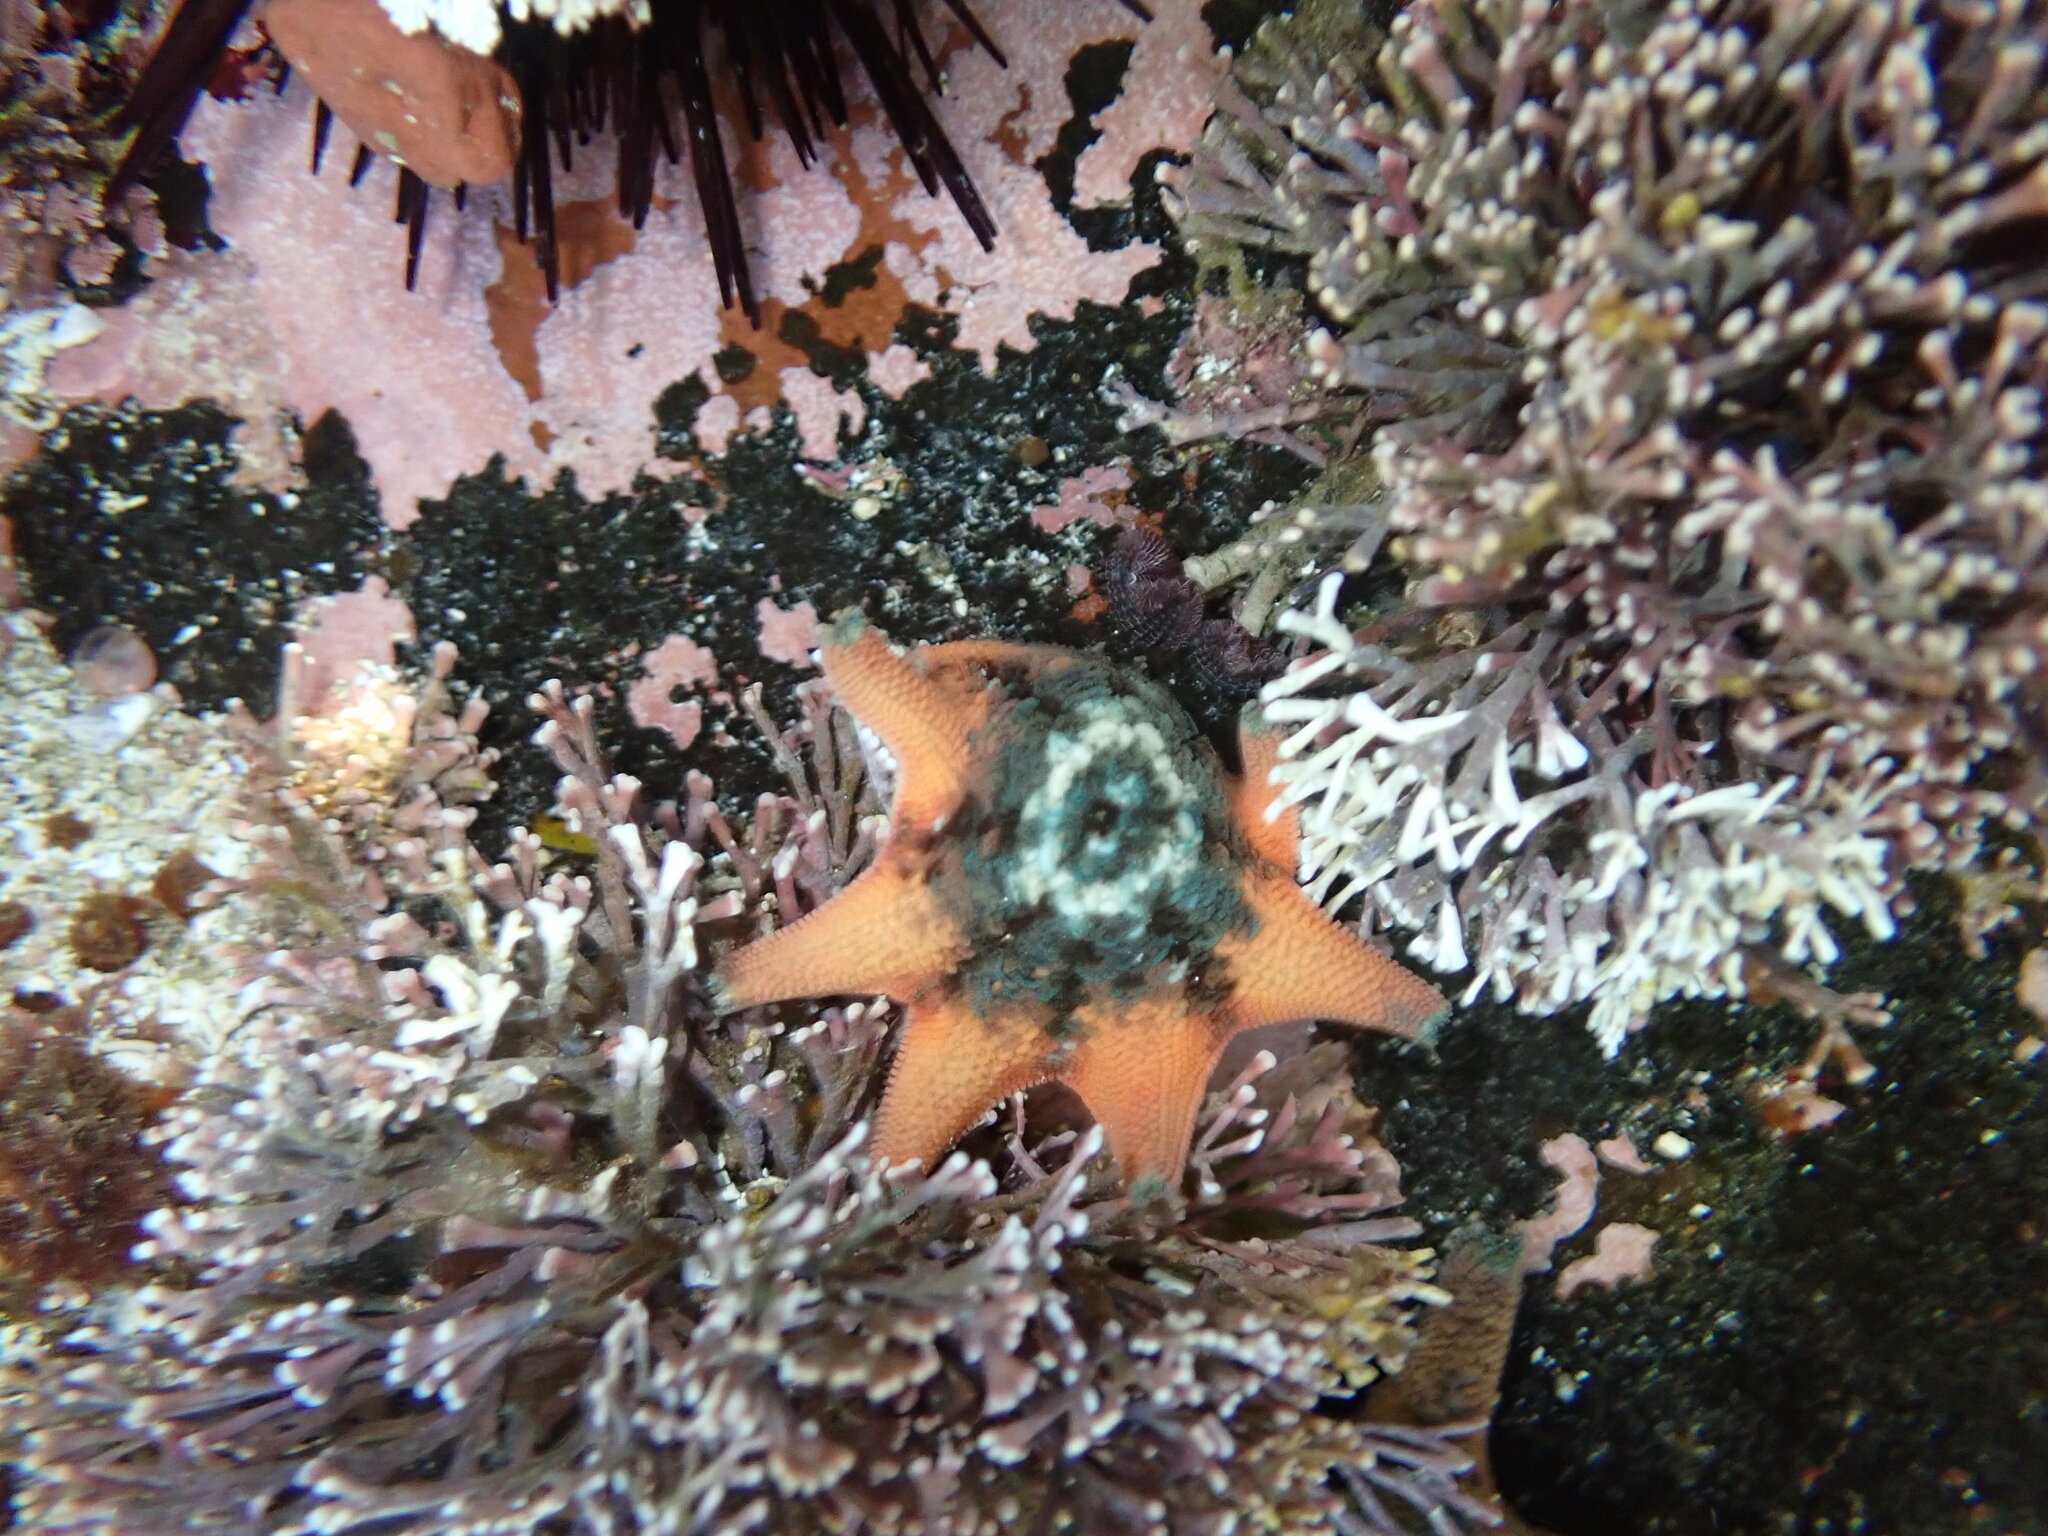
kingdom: Animalia
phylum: Echinodermata
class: Asteroidea
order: Valvatida
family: Asterinidae
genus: Meridiastra
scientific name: Meridiastra calcar
